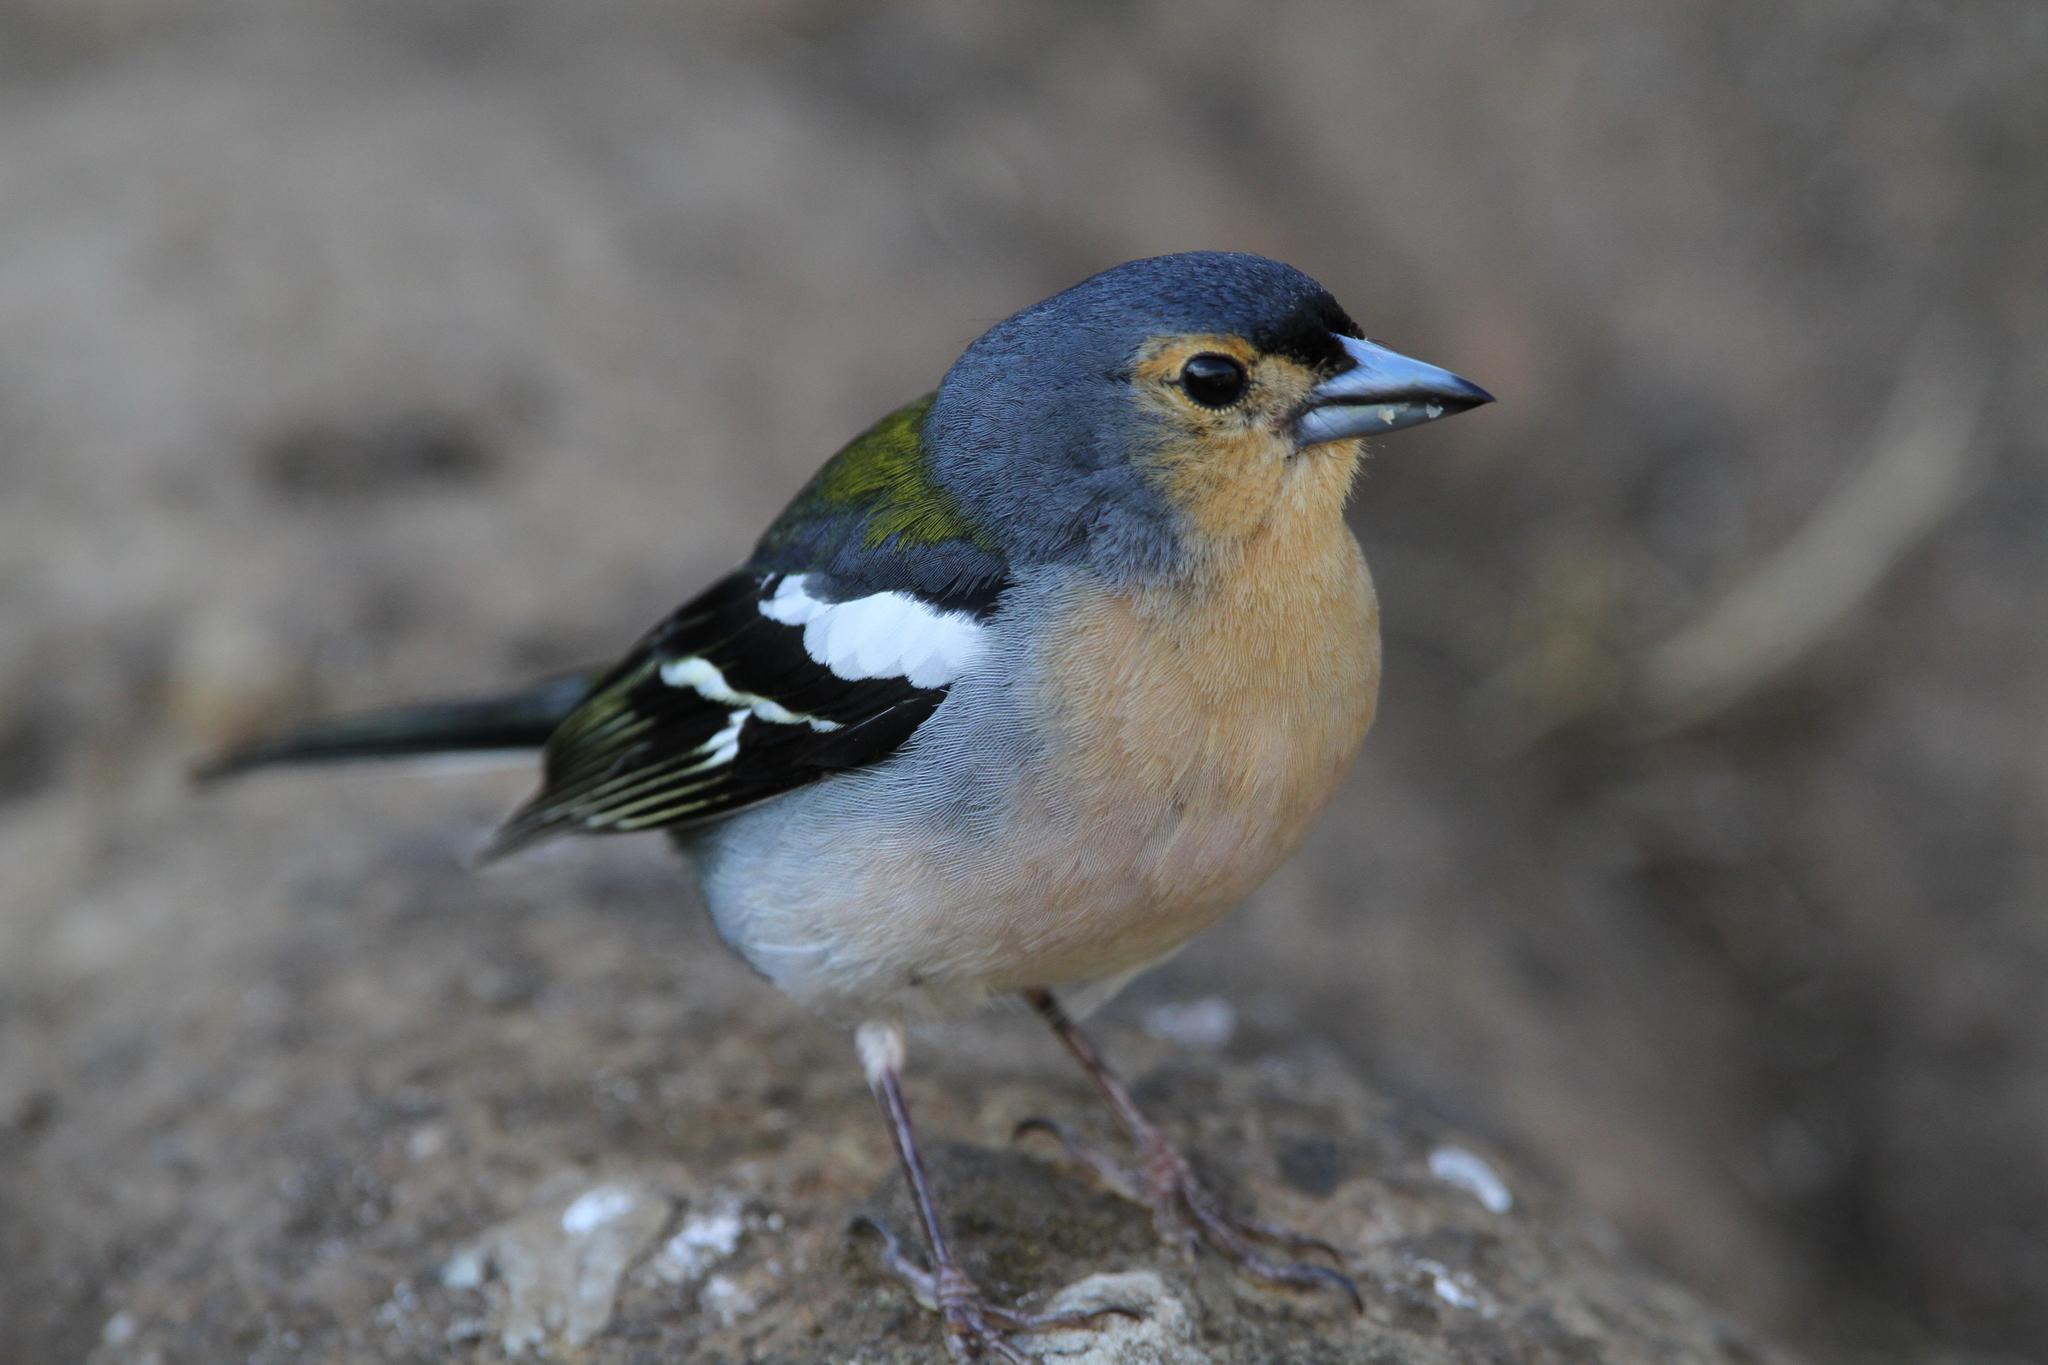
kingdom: Animalia
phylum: Chordata
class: Aves
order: Passeriformes
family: Fringillidae
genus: Fringilla
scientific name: Fringilla maderensis
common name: Madeira chaffinch
